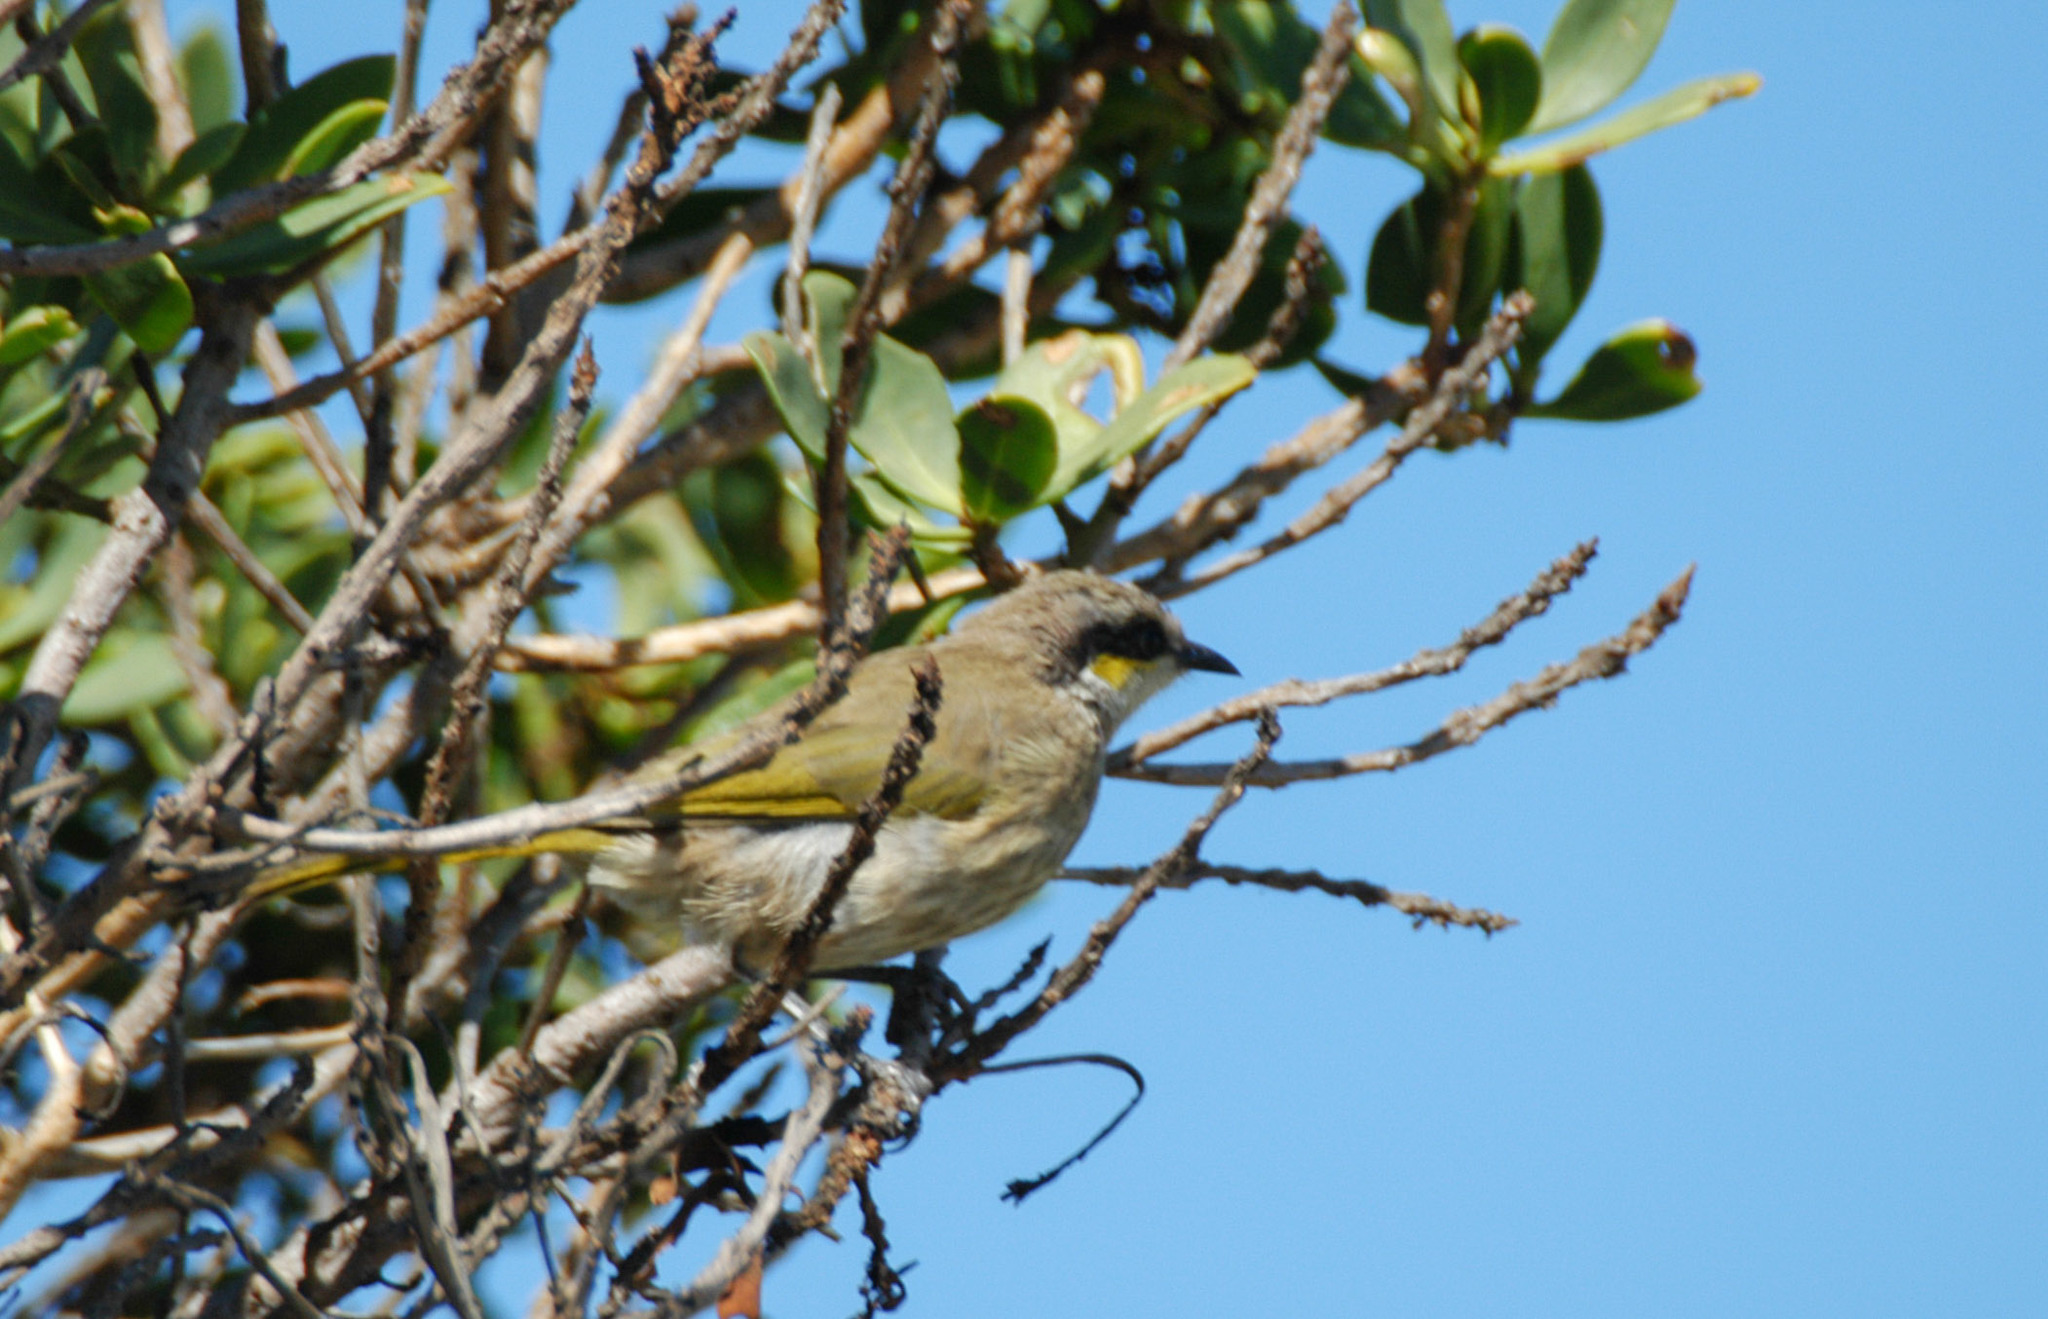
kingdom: Animalia
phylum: Chordata
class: Aves
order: Passeriformes
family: Meliphagidae
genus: Gavicalis
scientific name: Gavicalis virescens
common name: Singing honeyeater
